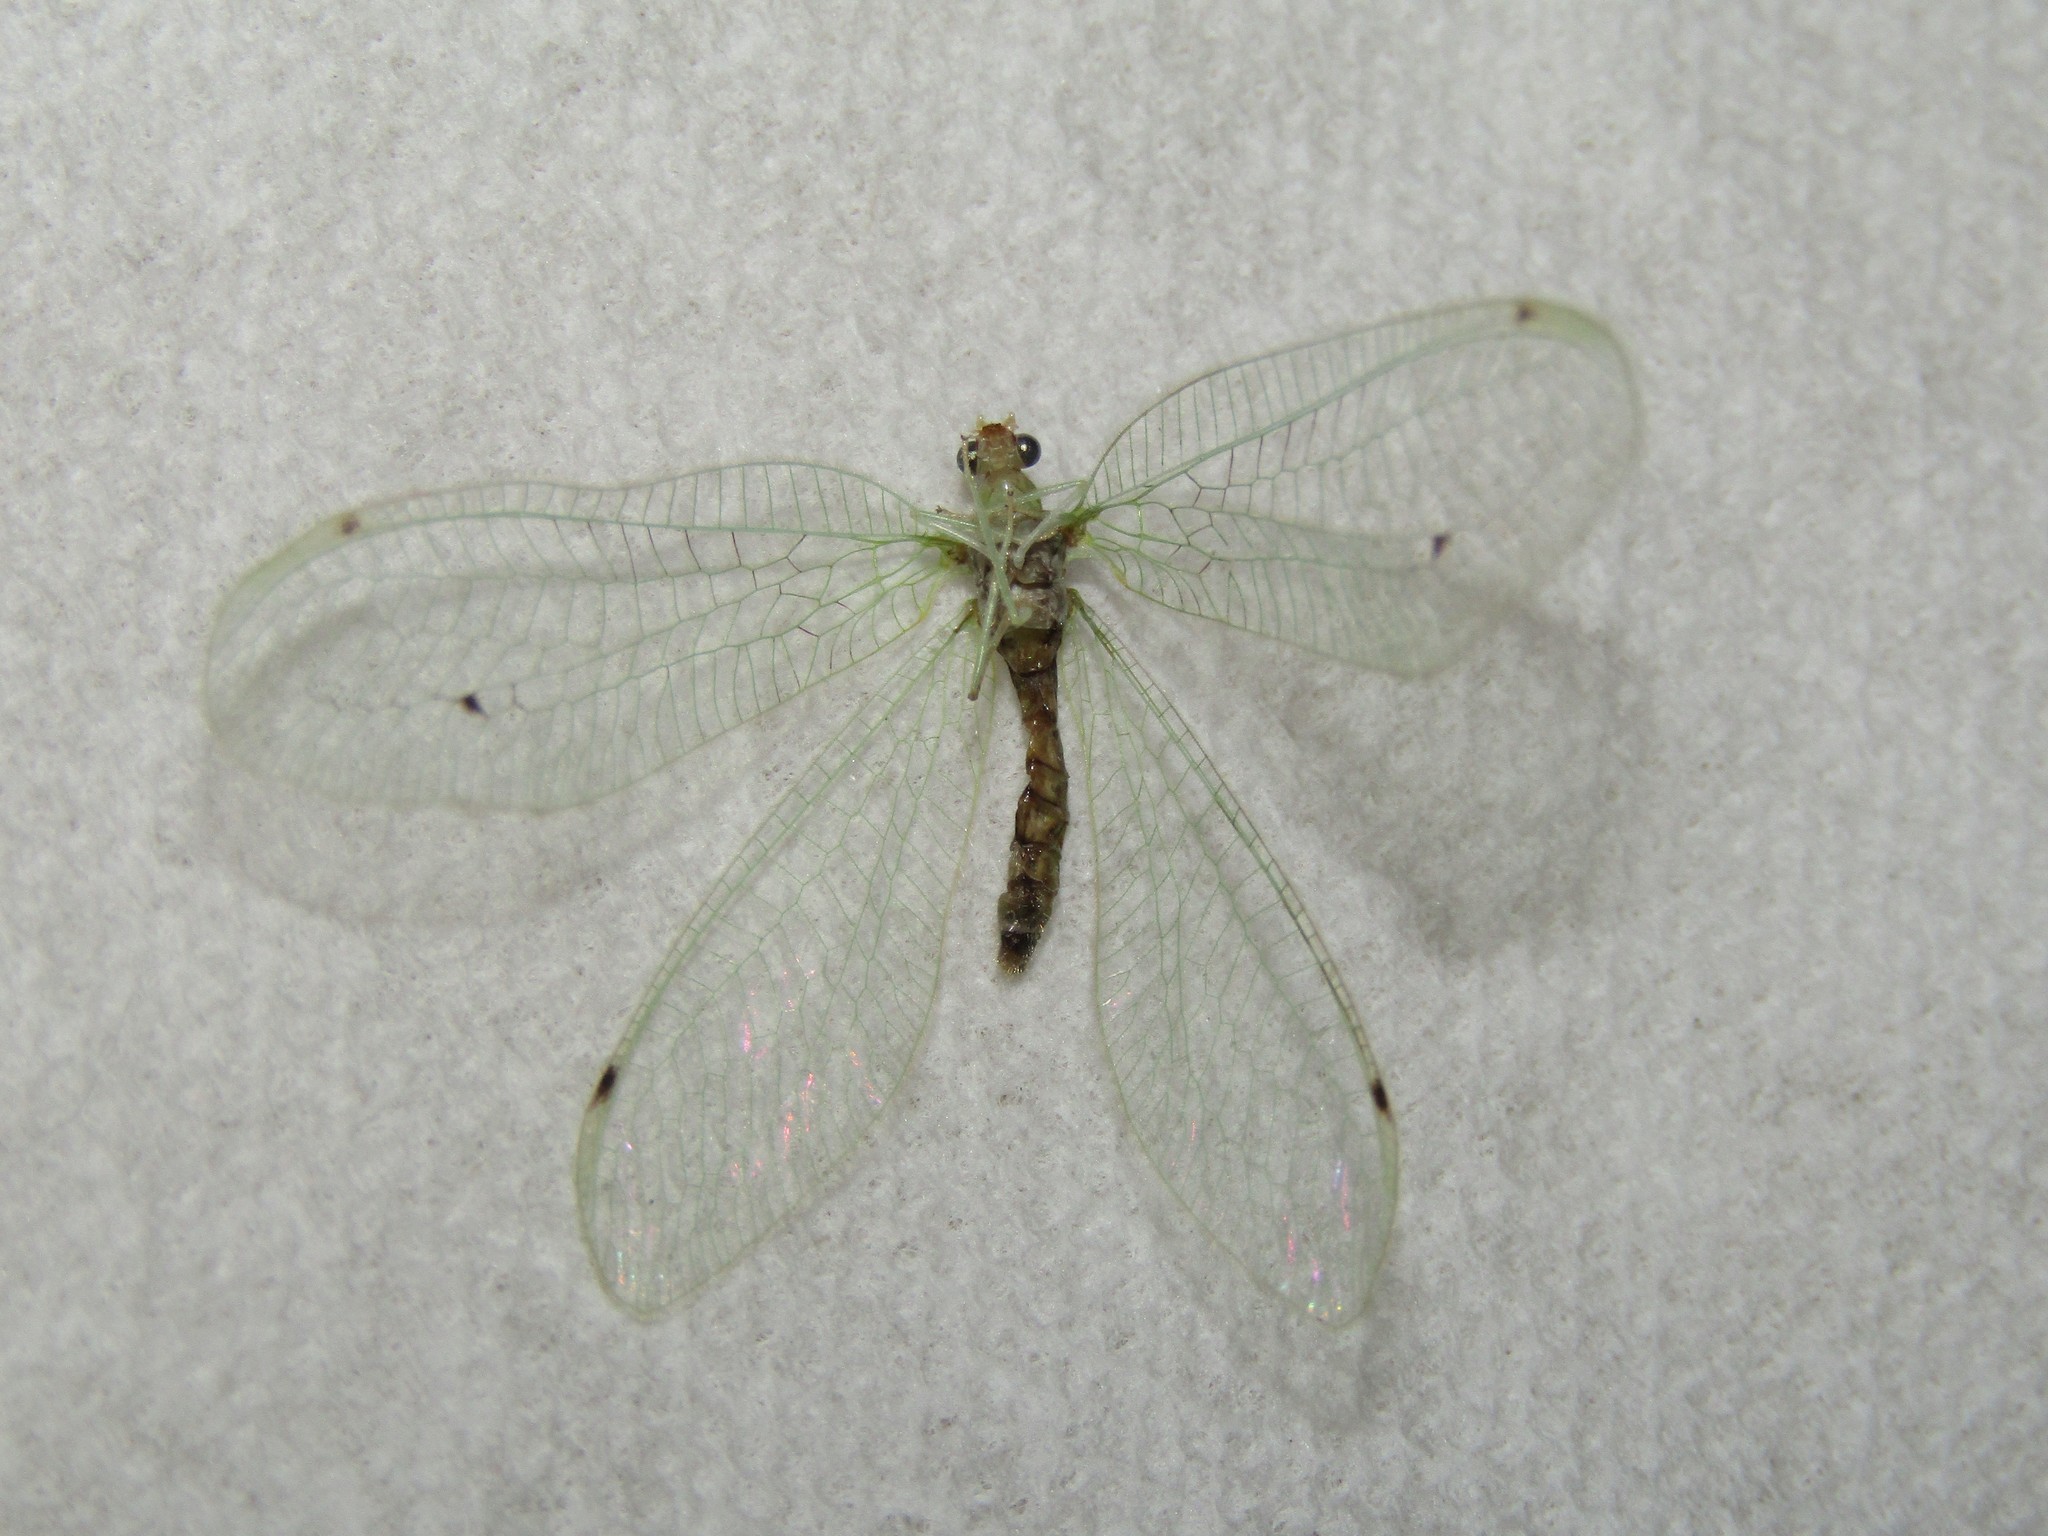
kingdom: Animalia
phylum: Arthropoda
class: Insecta
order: Neuroptera
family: Chrysopidae
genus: Leucochrysa
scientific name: Leucochrysa insularis
